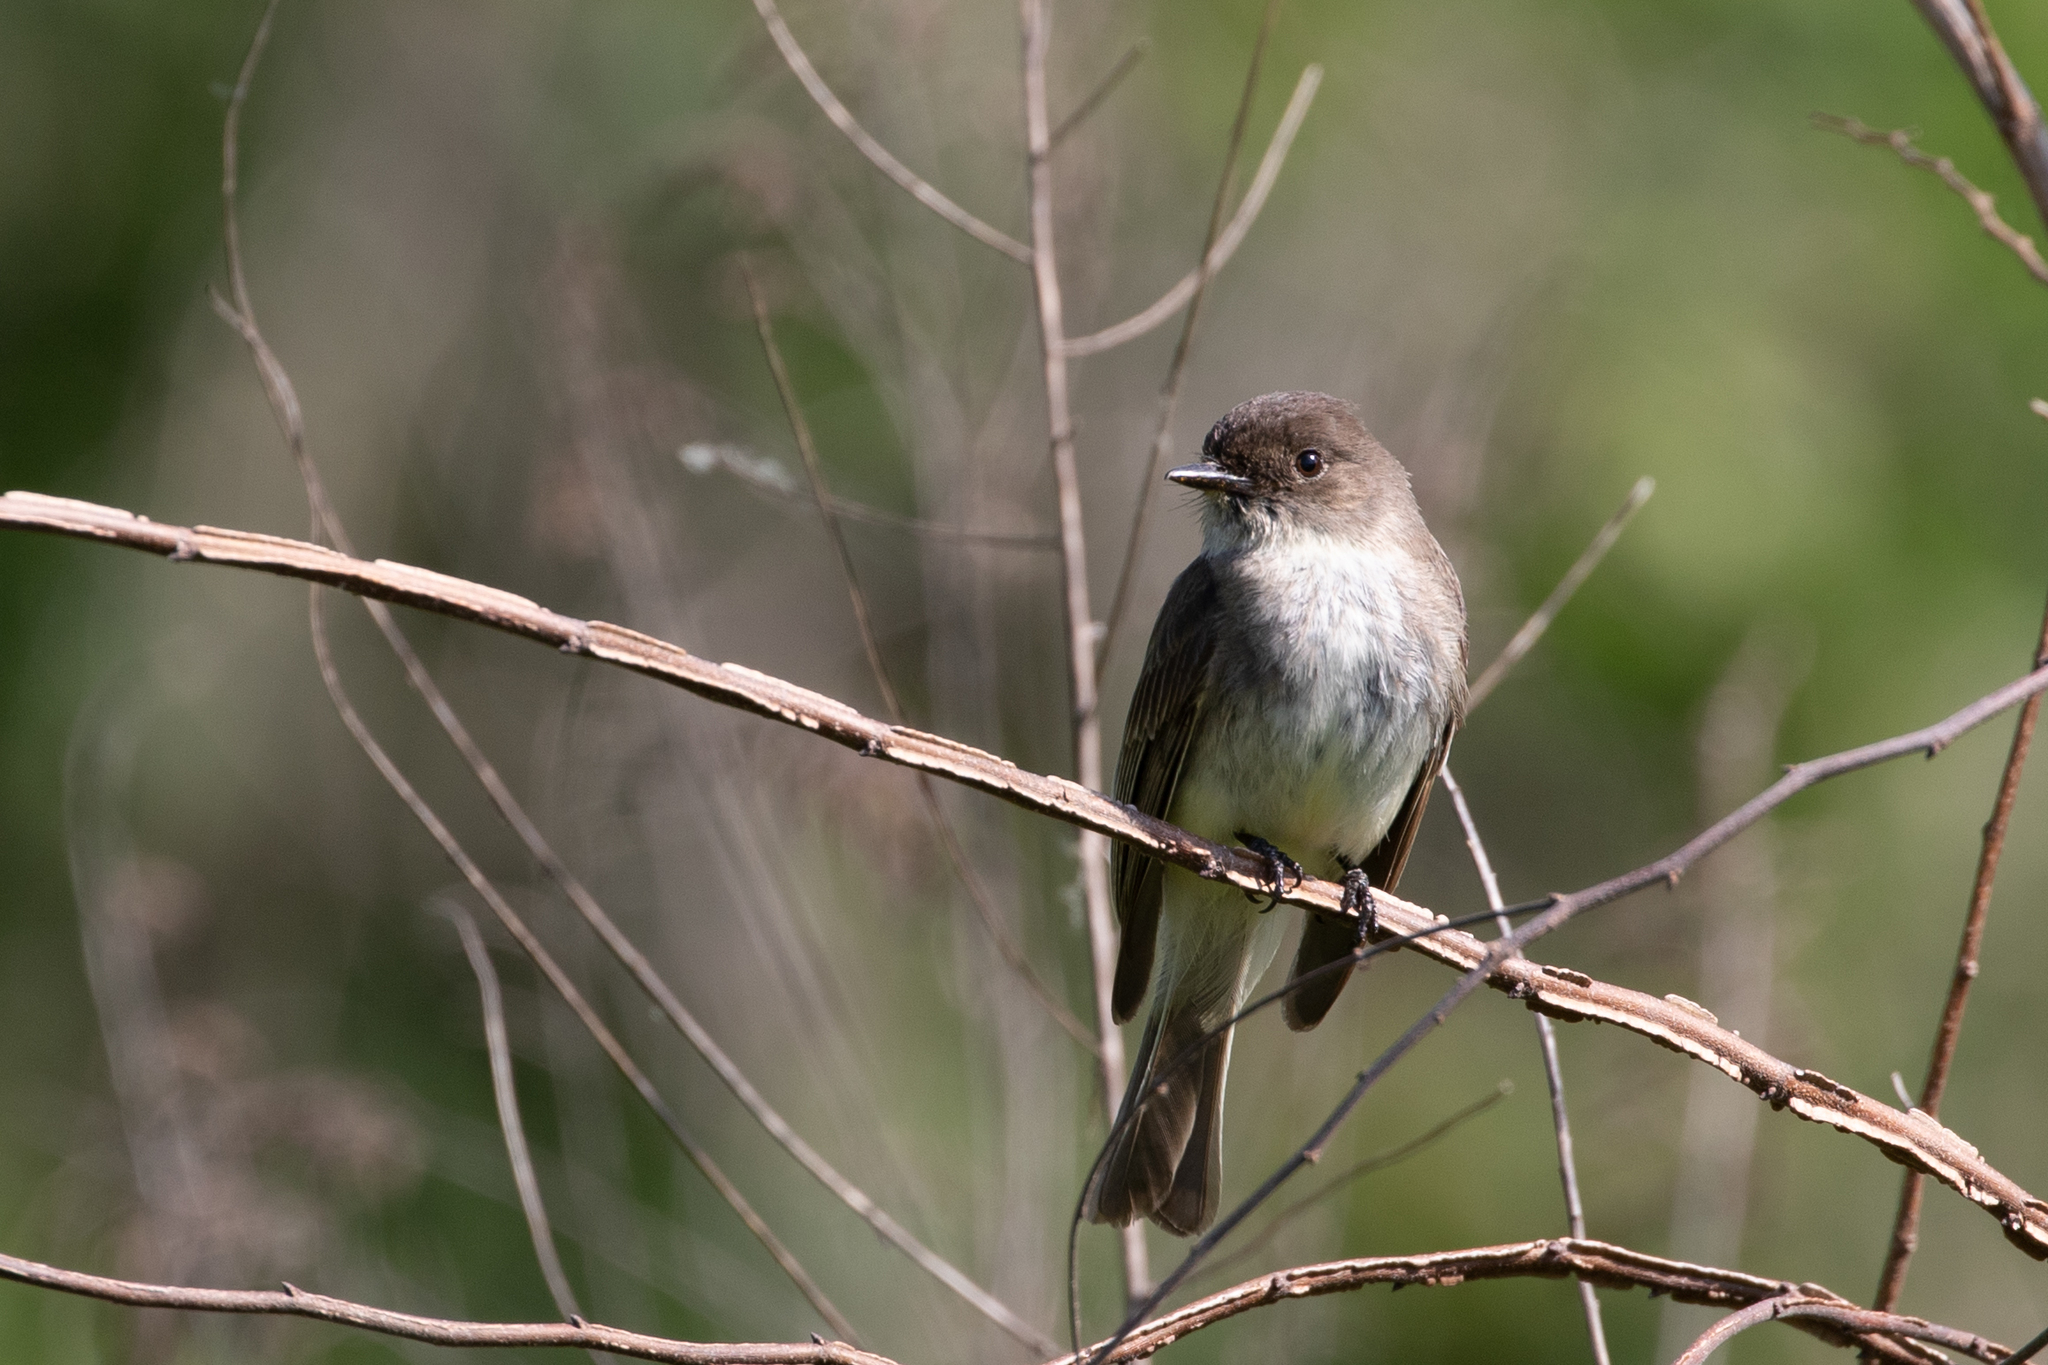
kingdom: Animalia
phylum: Chordata
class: Aves
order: Passeriformes
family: Tyrannidae
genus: Sayornis
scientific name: Sayornis phoebe
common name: Eastern phoebe
